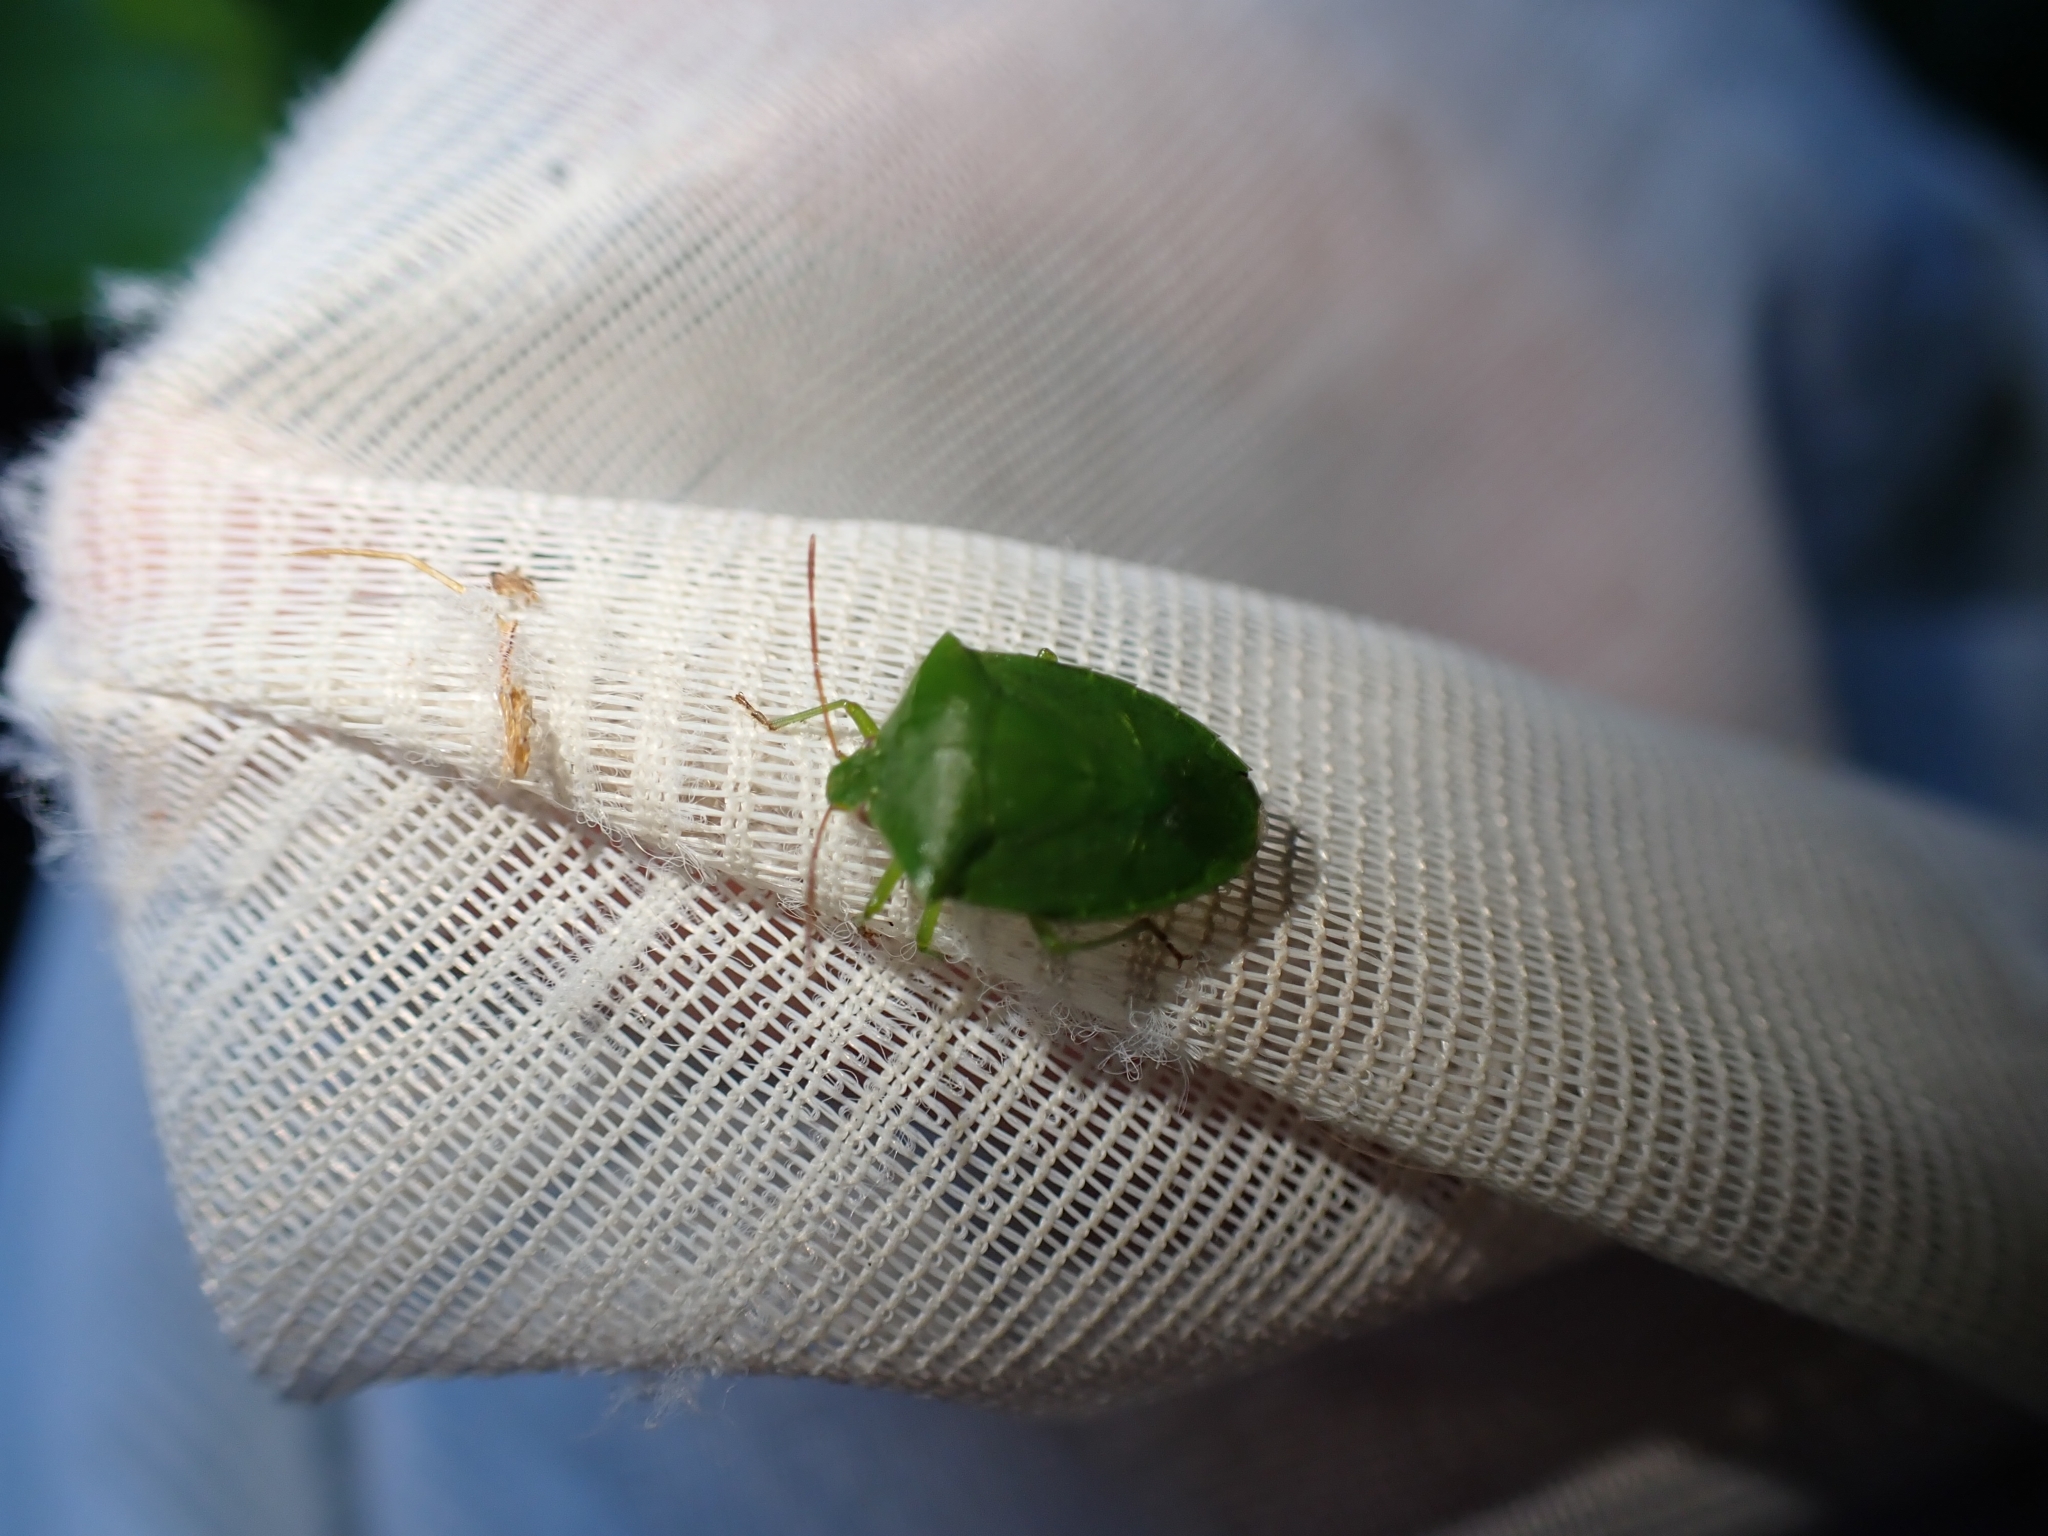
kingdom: Animalia
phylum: Arthropoda
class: Insecta
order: Hemiptera
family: Pentatomidae
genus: Cuspicona
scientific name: Cuspicona simplex
